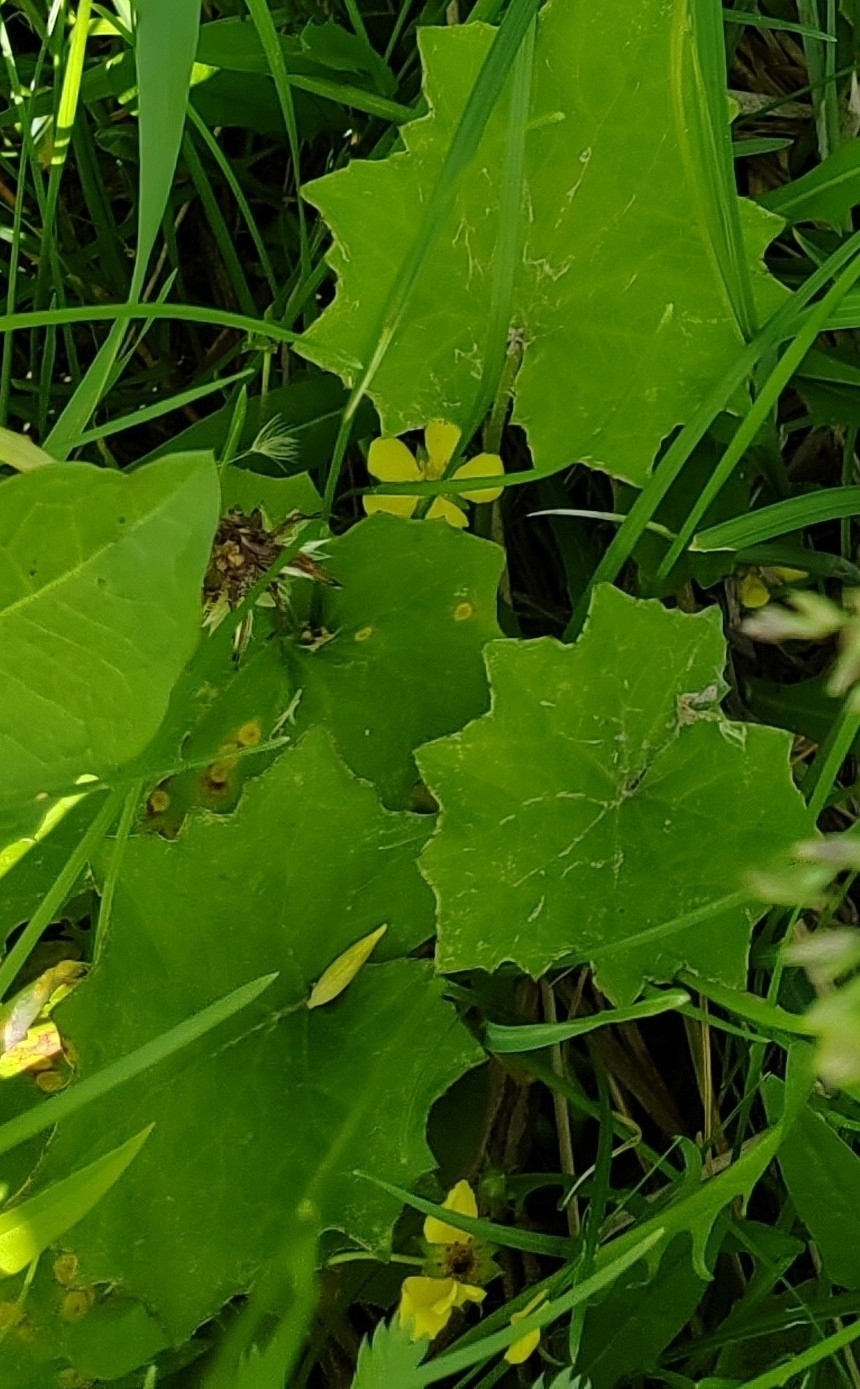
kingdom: Plantae
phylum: Tracheophyta
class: Magnoliopsida
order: Asterales
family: Asteraceae
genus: Tussilago
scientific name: Tussilago farfara
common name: Coltsfoot
